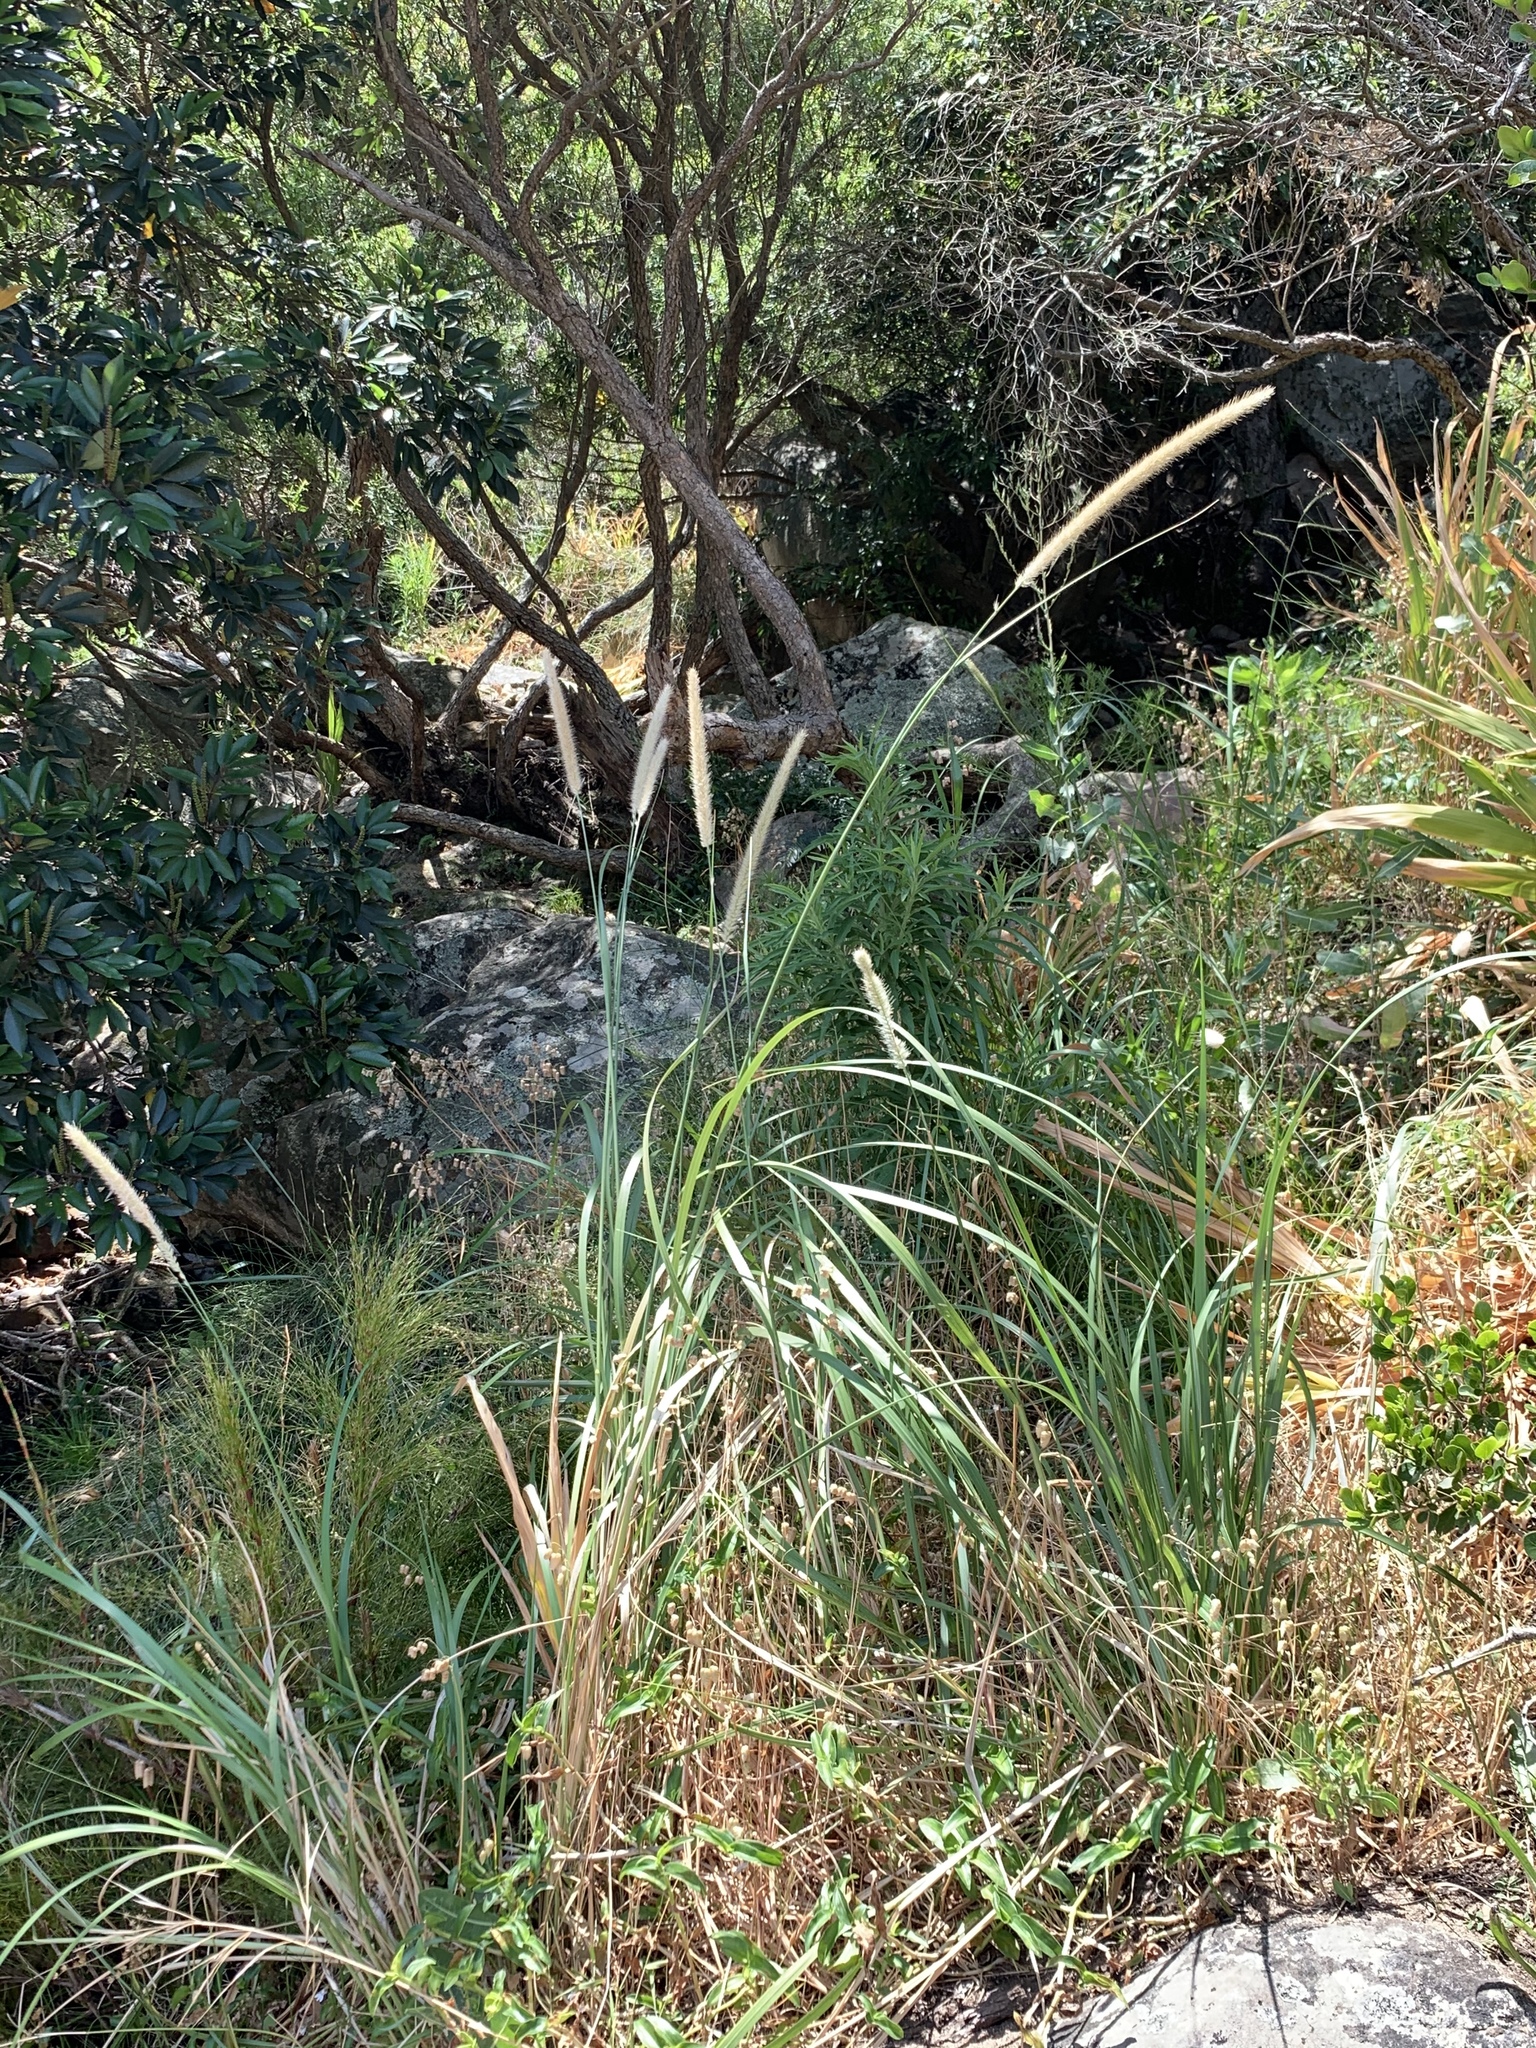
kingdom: Plantae
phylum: Tracheophyta
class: Liliopsida
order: Poales
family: Poaceae
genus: Cenchrus
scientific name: Cenchrus caudatus
